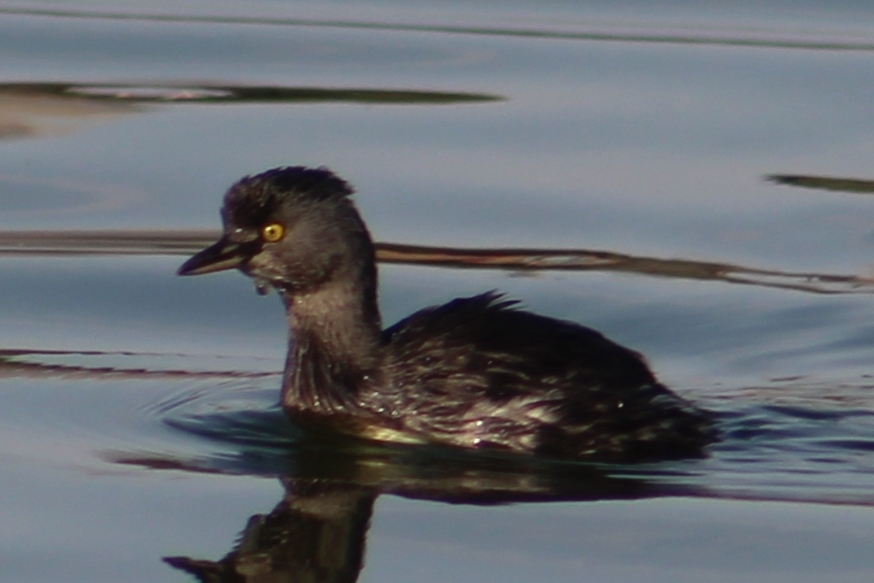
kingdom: Animalia
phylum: Chordata
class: Aves
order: Podicipediformes
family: Podicipedidae
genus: Tachybaptus
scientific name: Tachybaptus dominicus
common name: Least grebe
